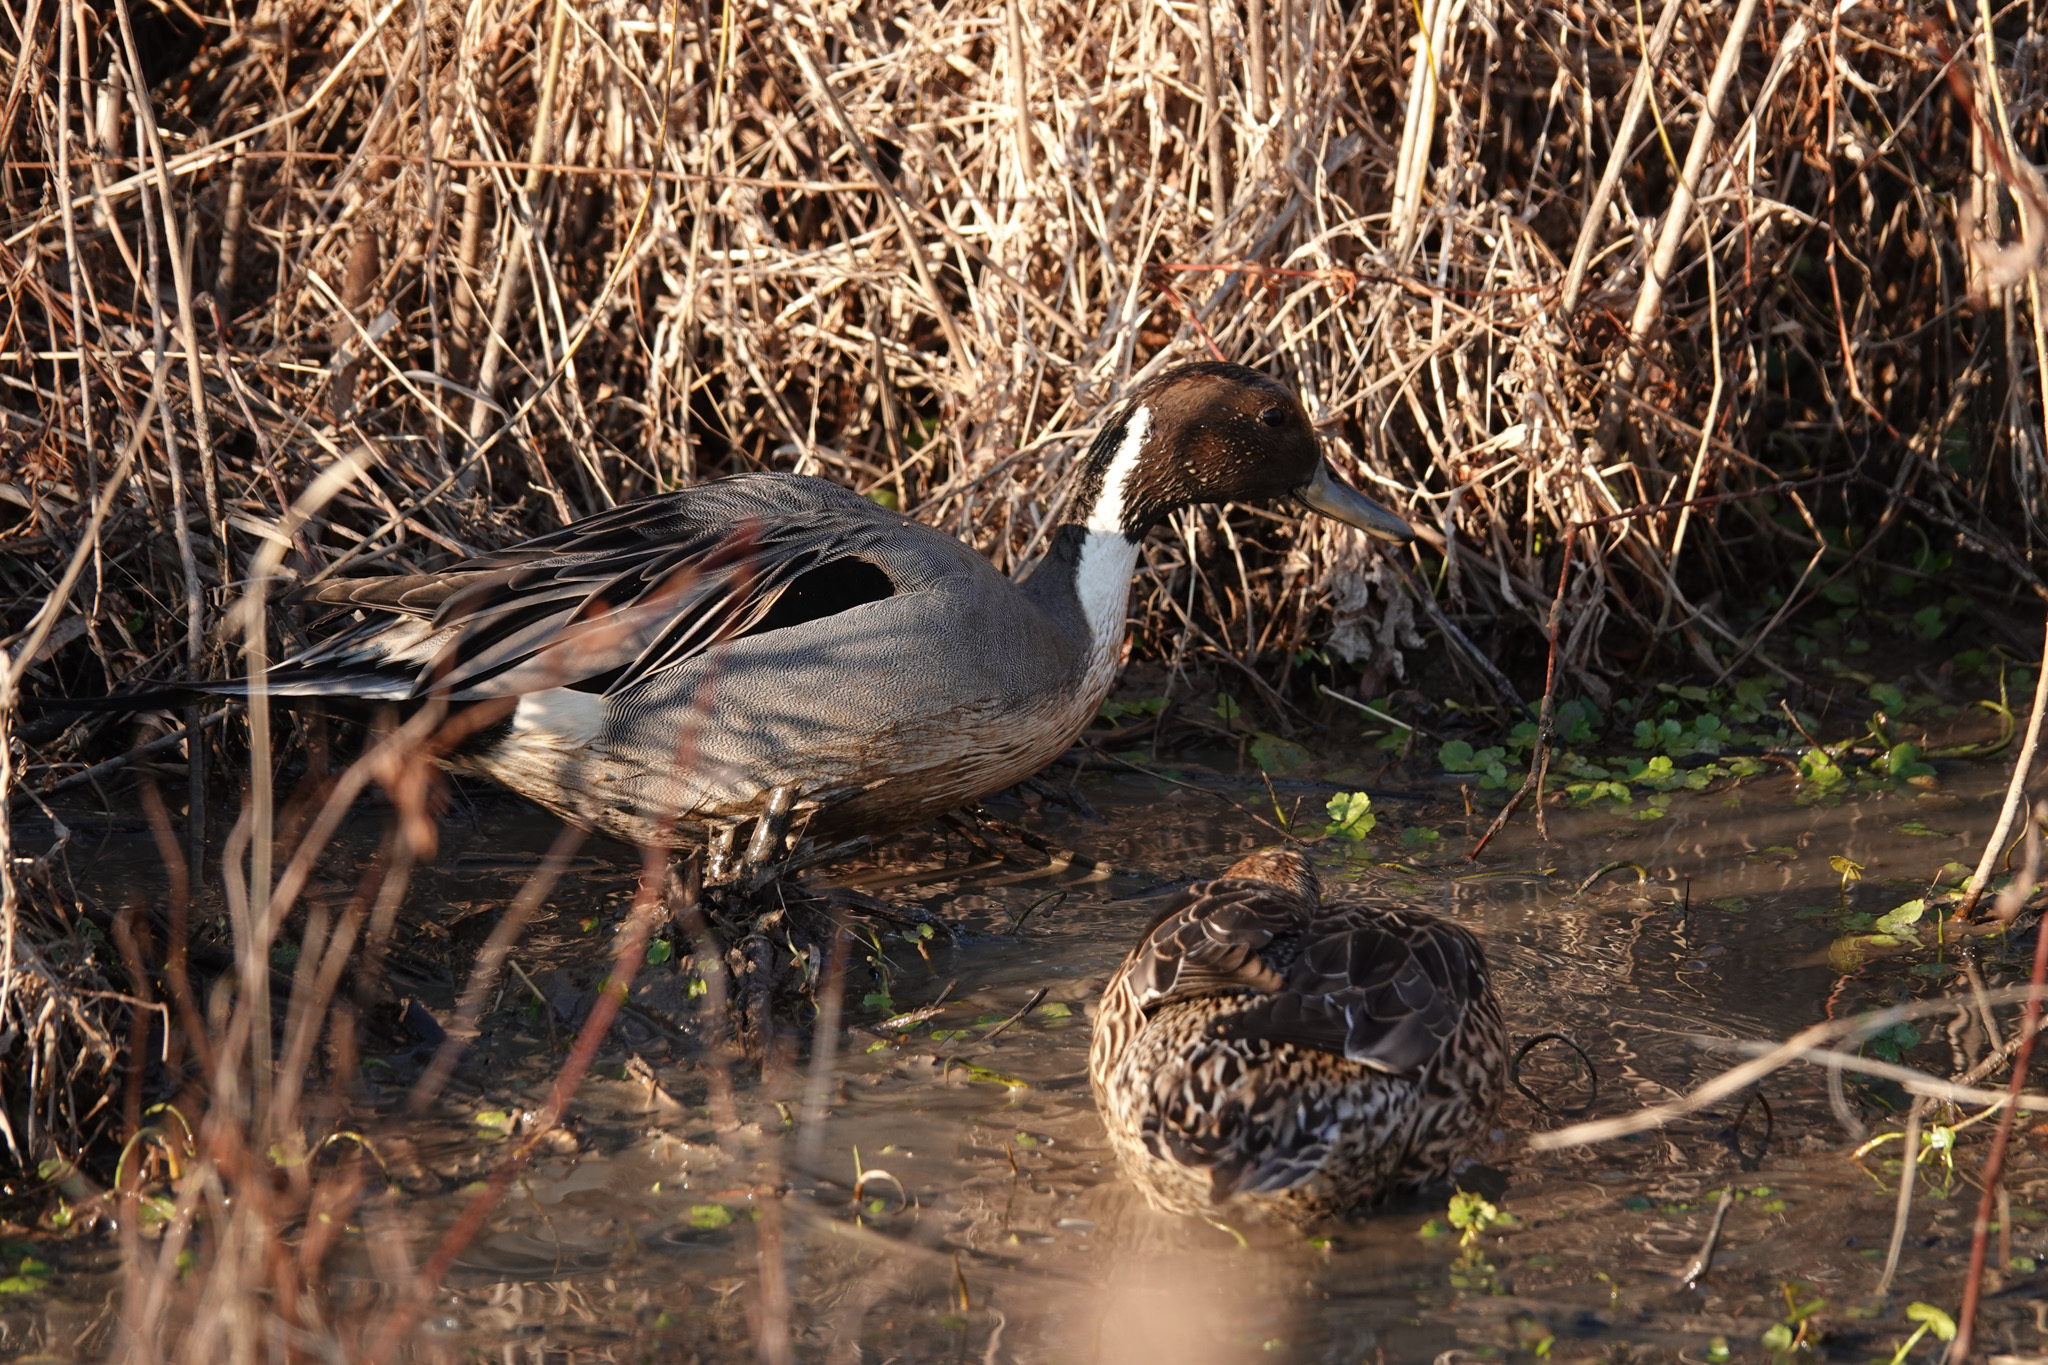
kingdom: Animalia
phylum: Chordata
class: Aves
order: Anseriformes
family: Anatidae
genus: Anas
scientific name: Anas acuta
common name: Northern pintail
